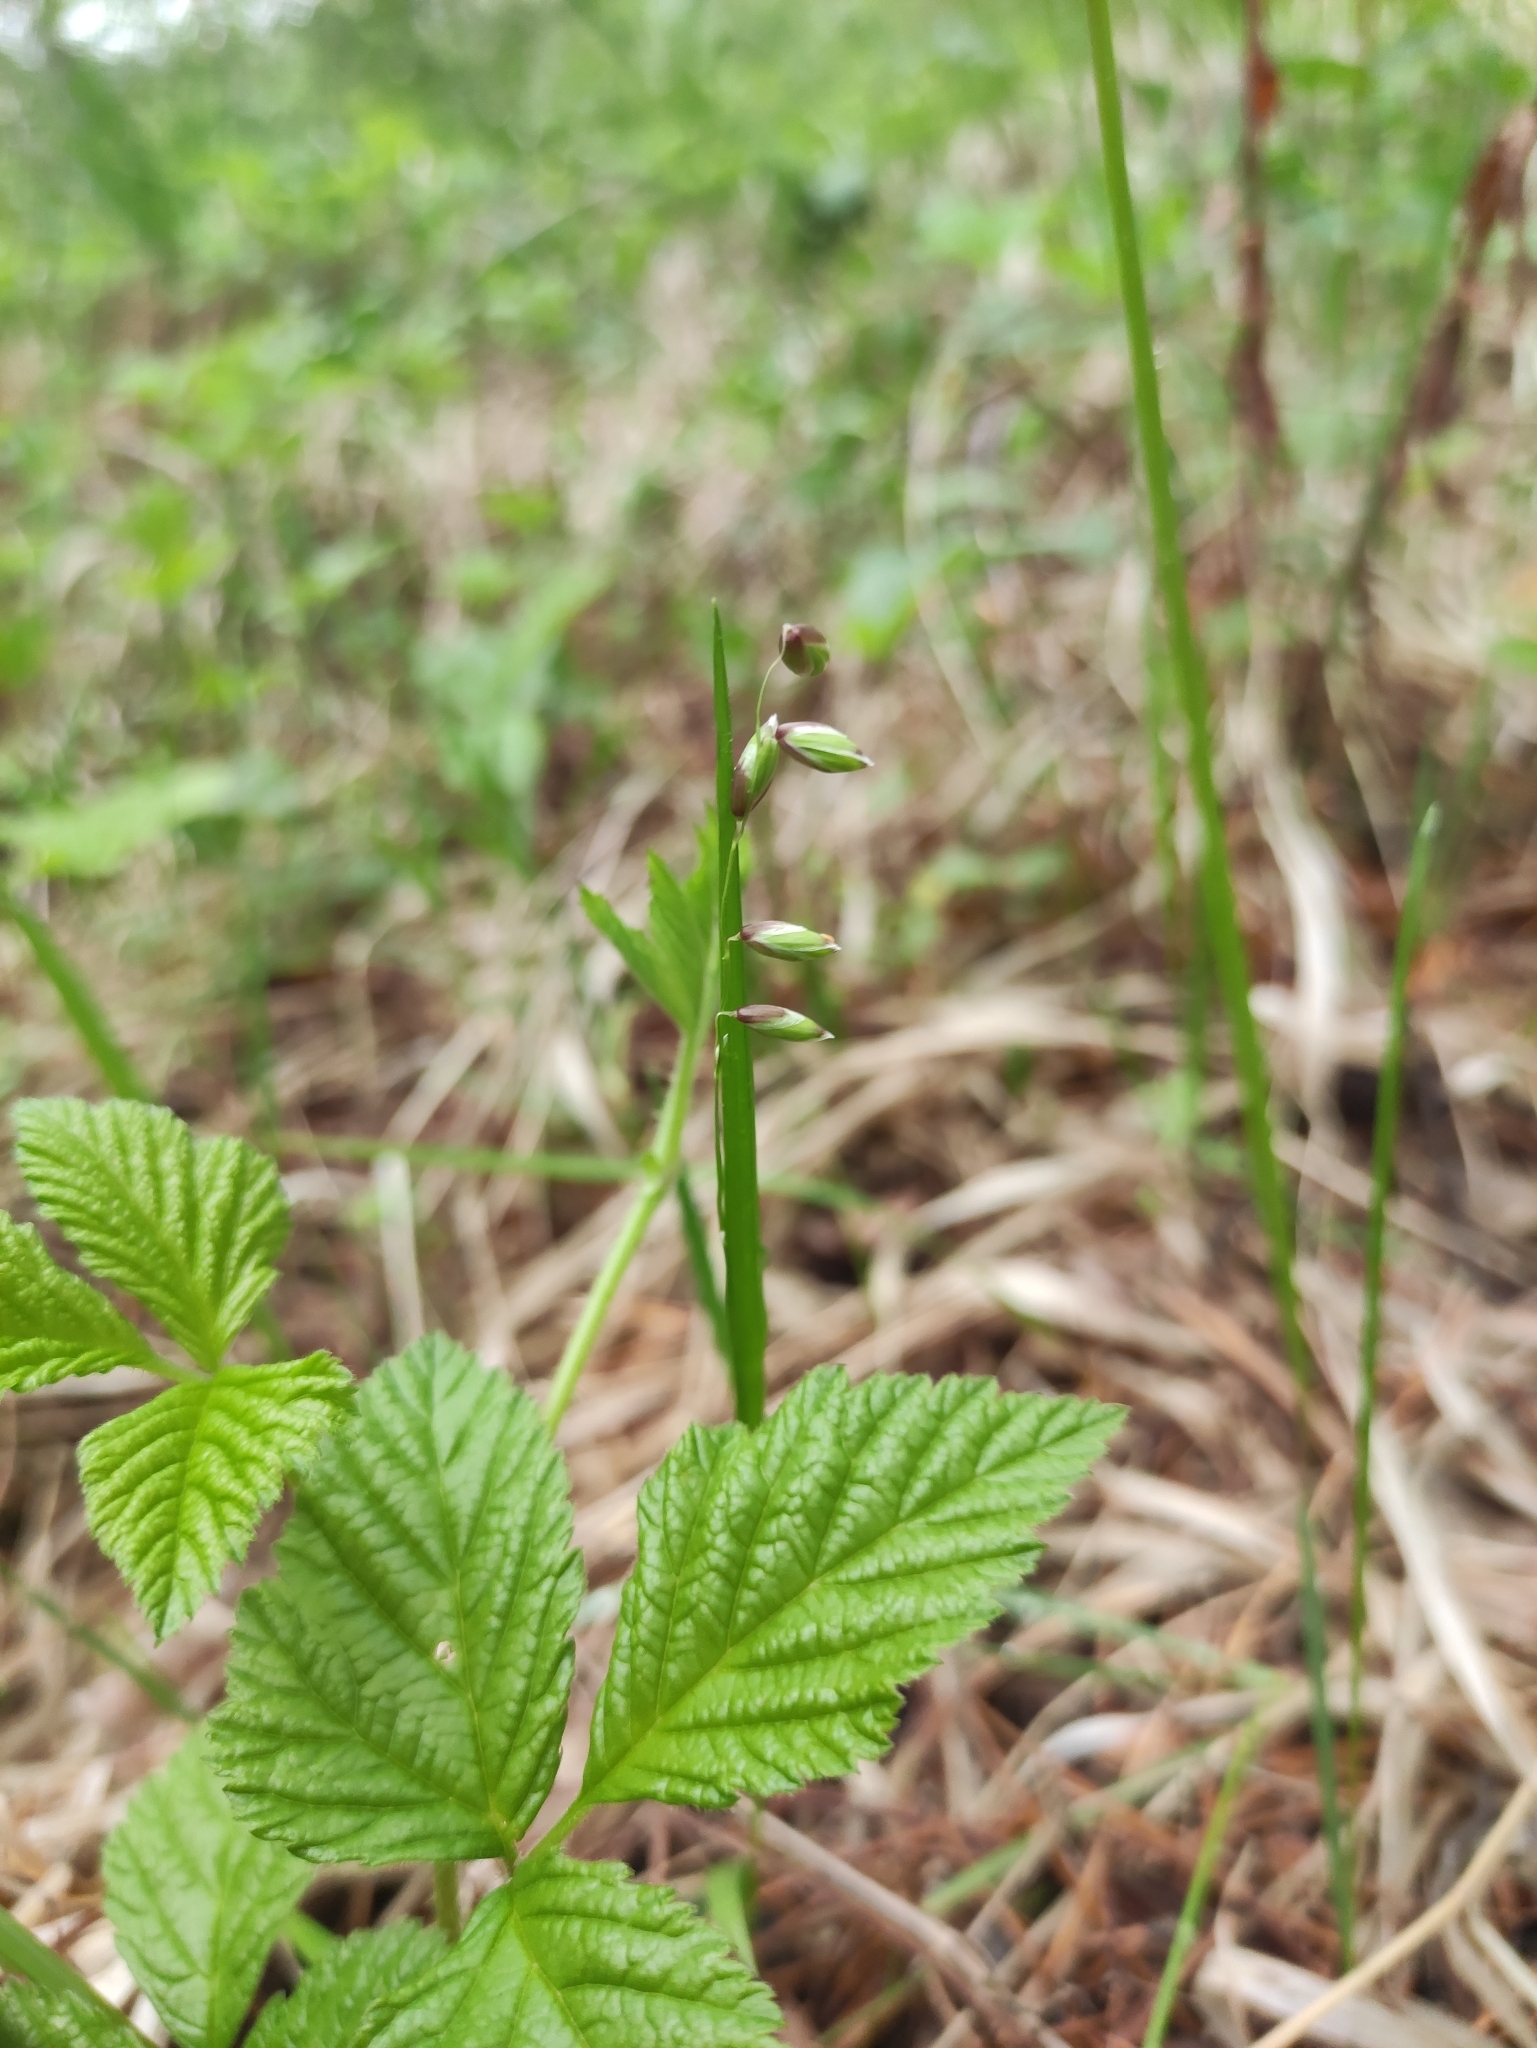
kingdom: Plantae
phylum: Tracheophyta
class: Liliopsida
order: Poales
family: Poaceae
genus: Melica
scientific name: Melica nutans
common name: Mountain melick
